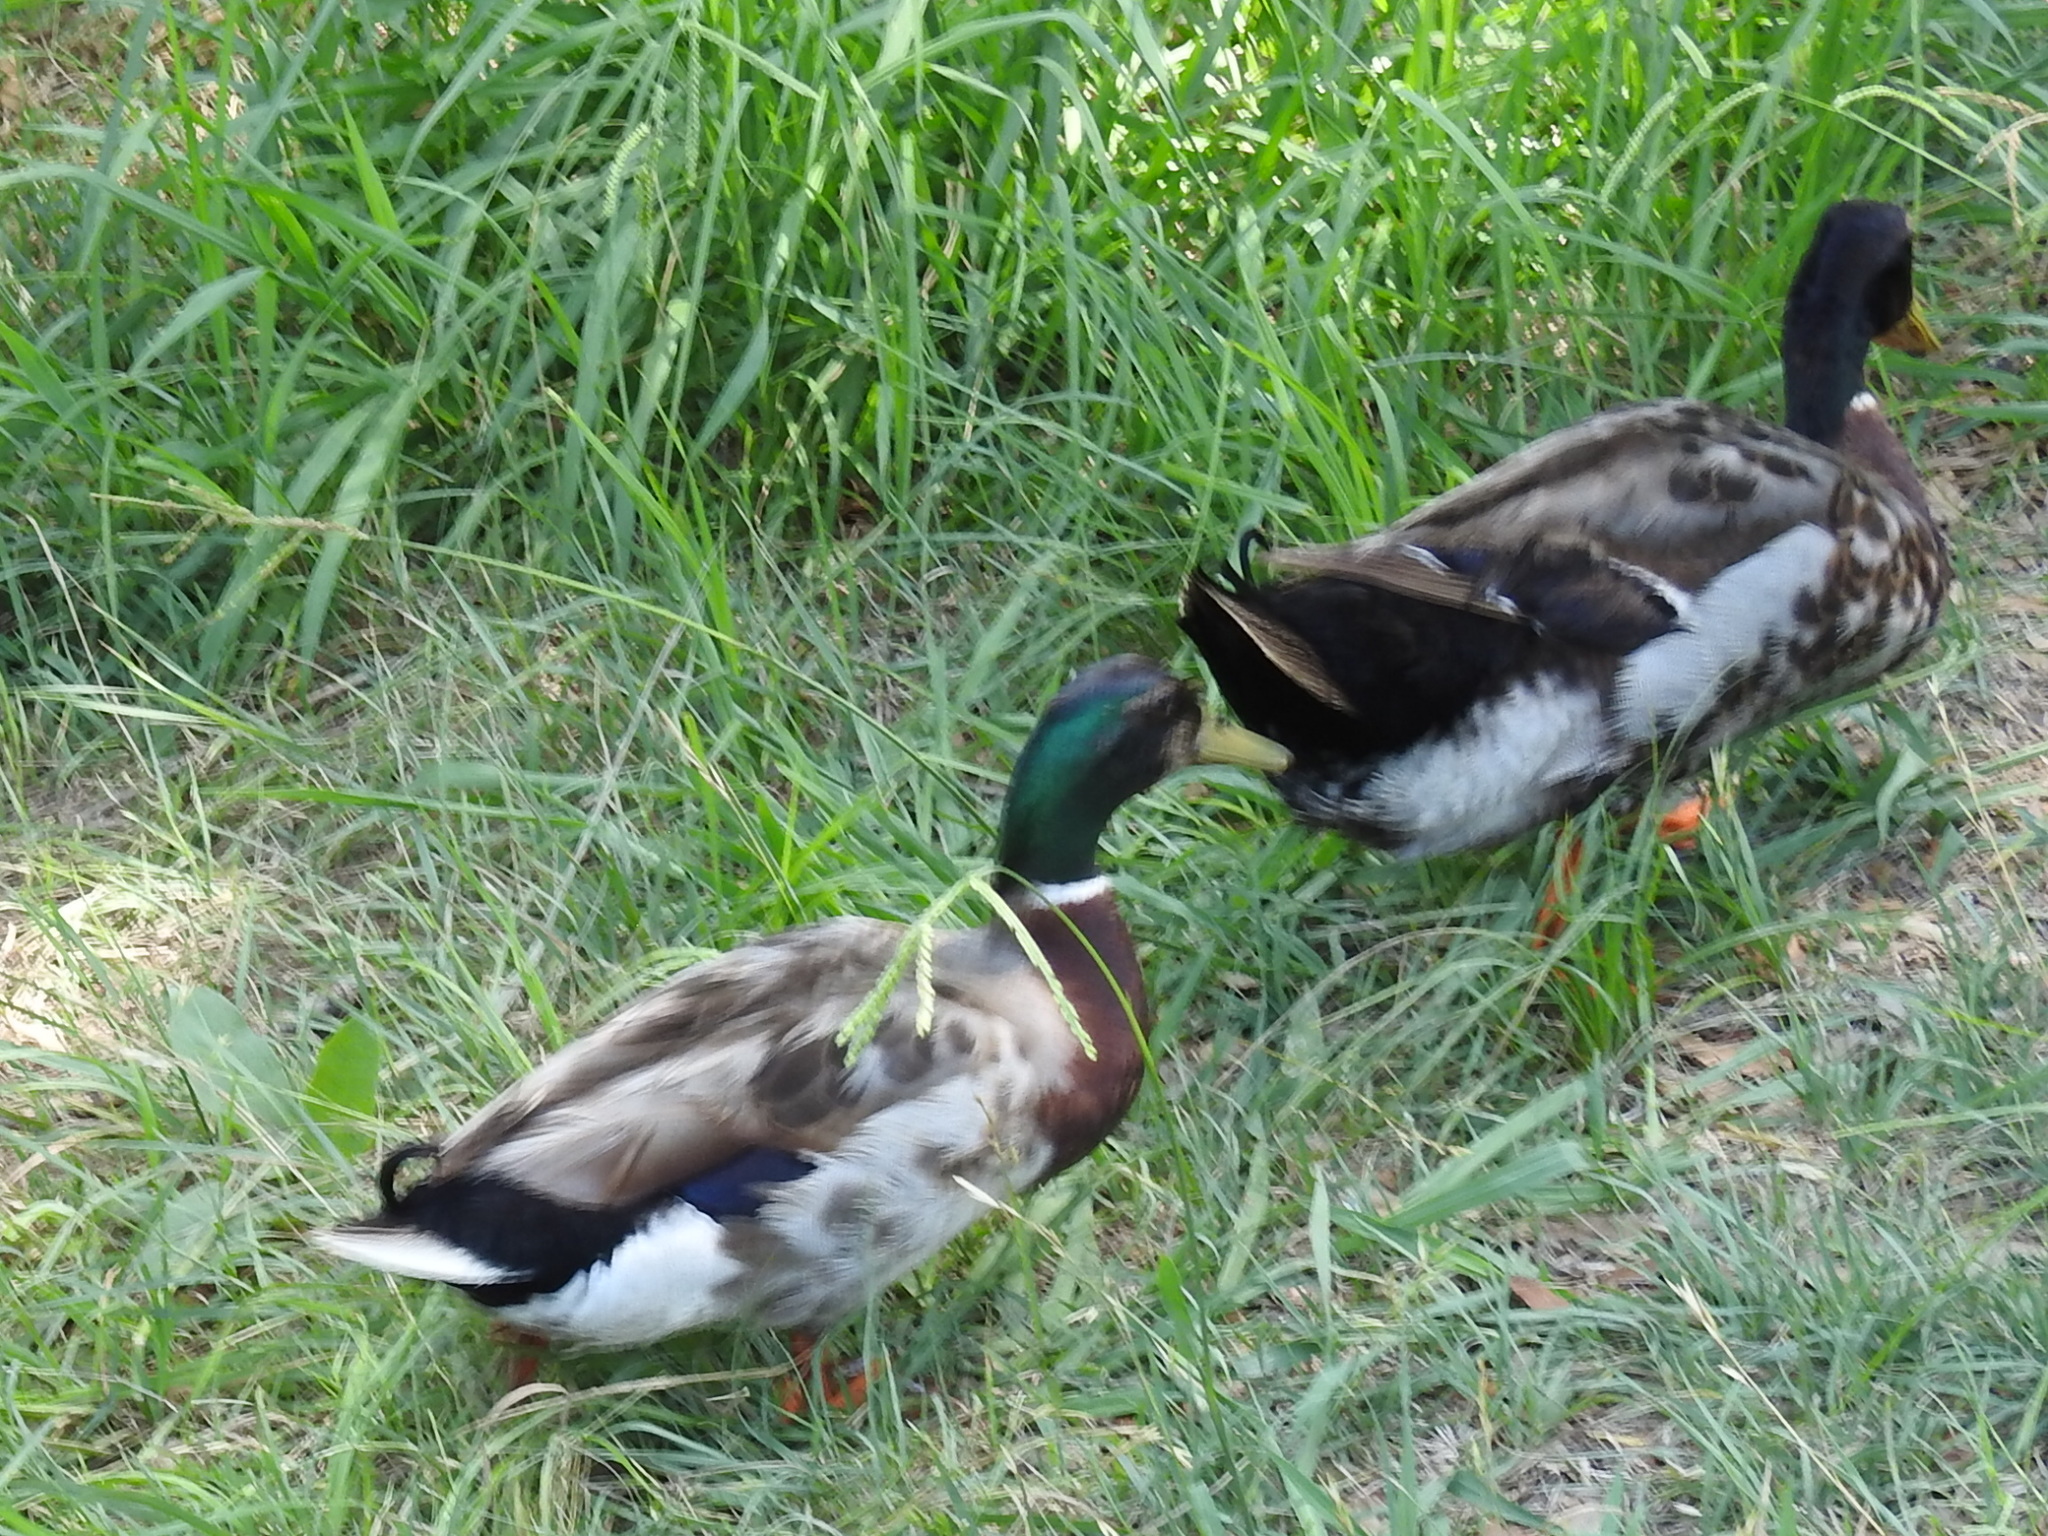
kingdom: Animalia
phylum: Chordata
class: Aves
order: Anseriformes
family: Anatidae
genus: Anas
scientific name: Anas platyrhynchos
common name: Mallard
